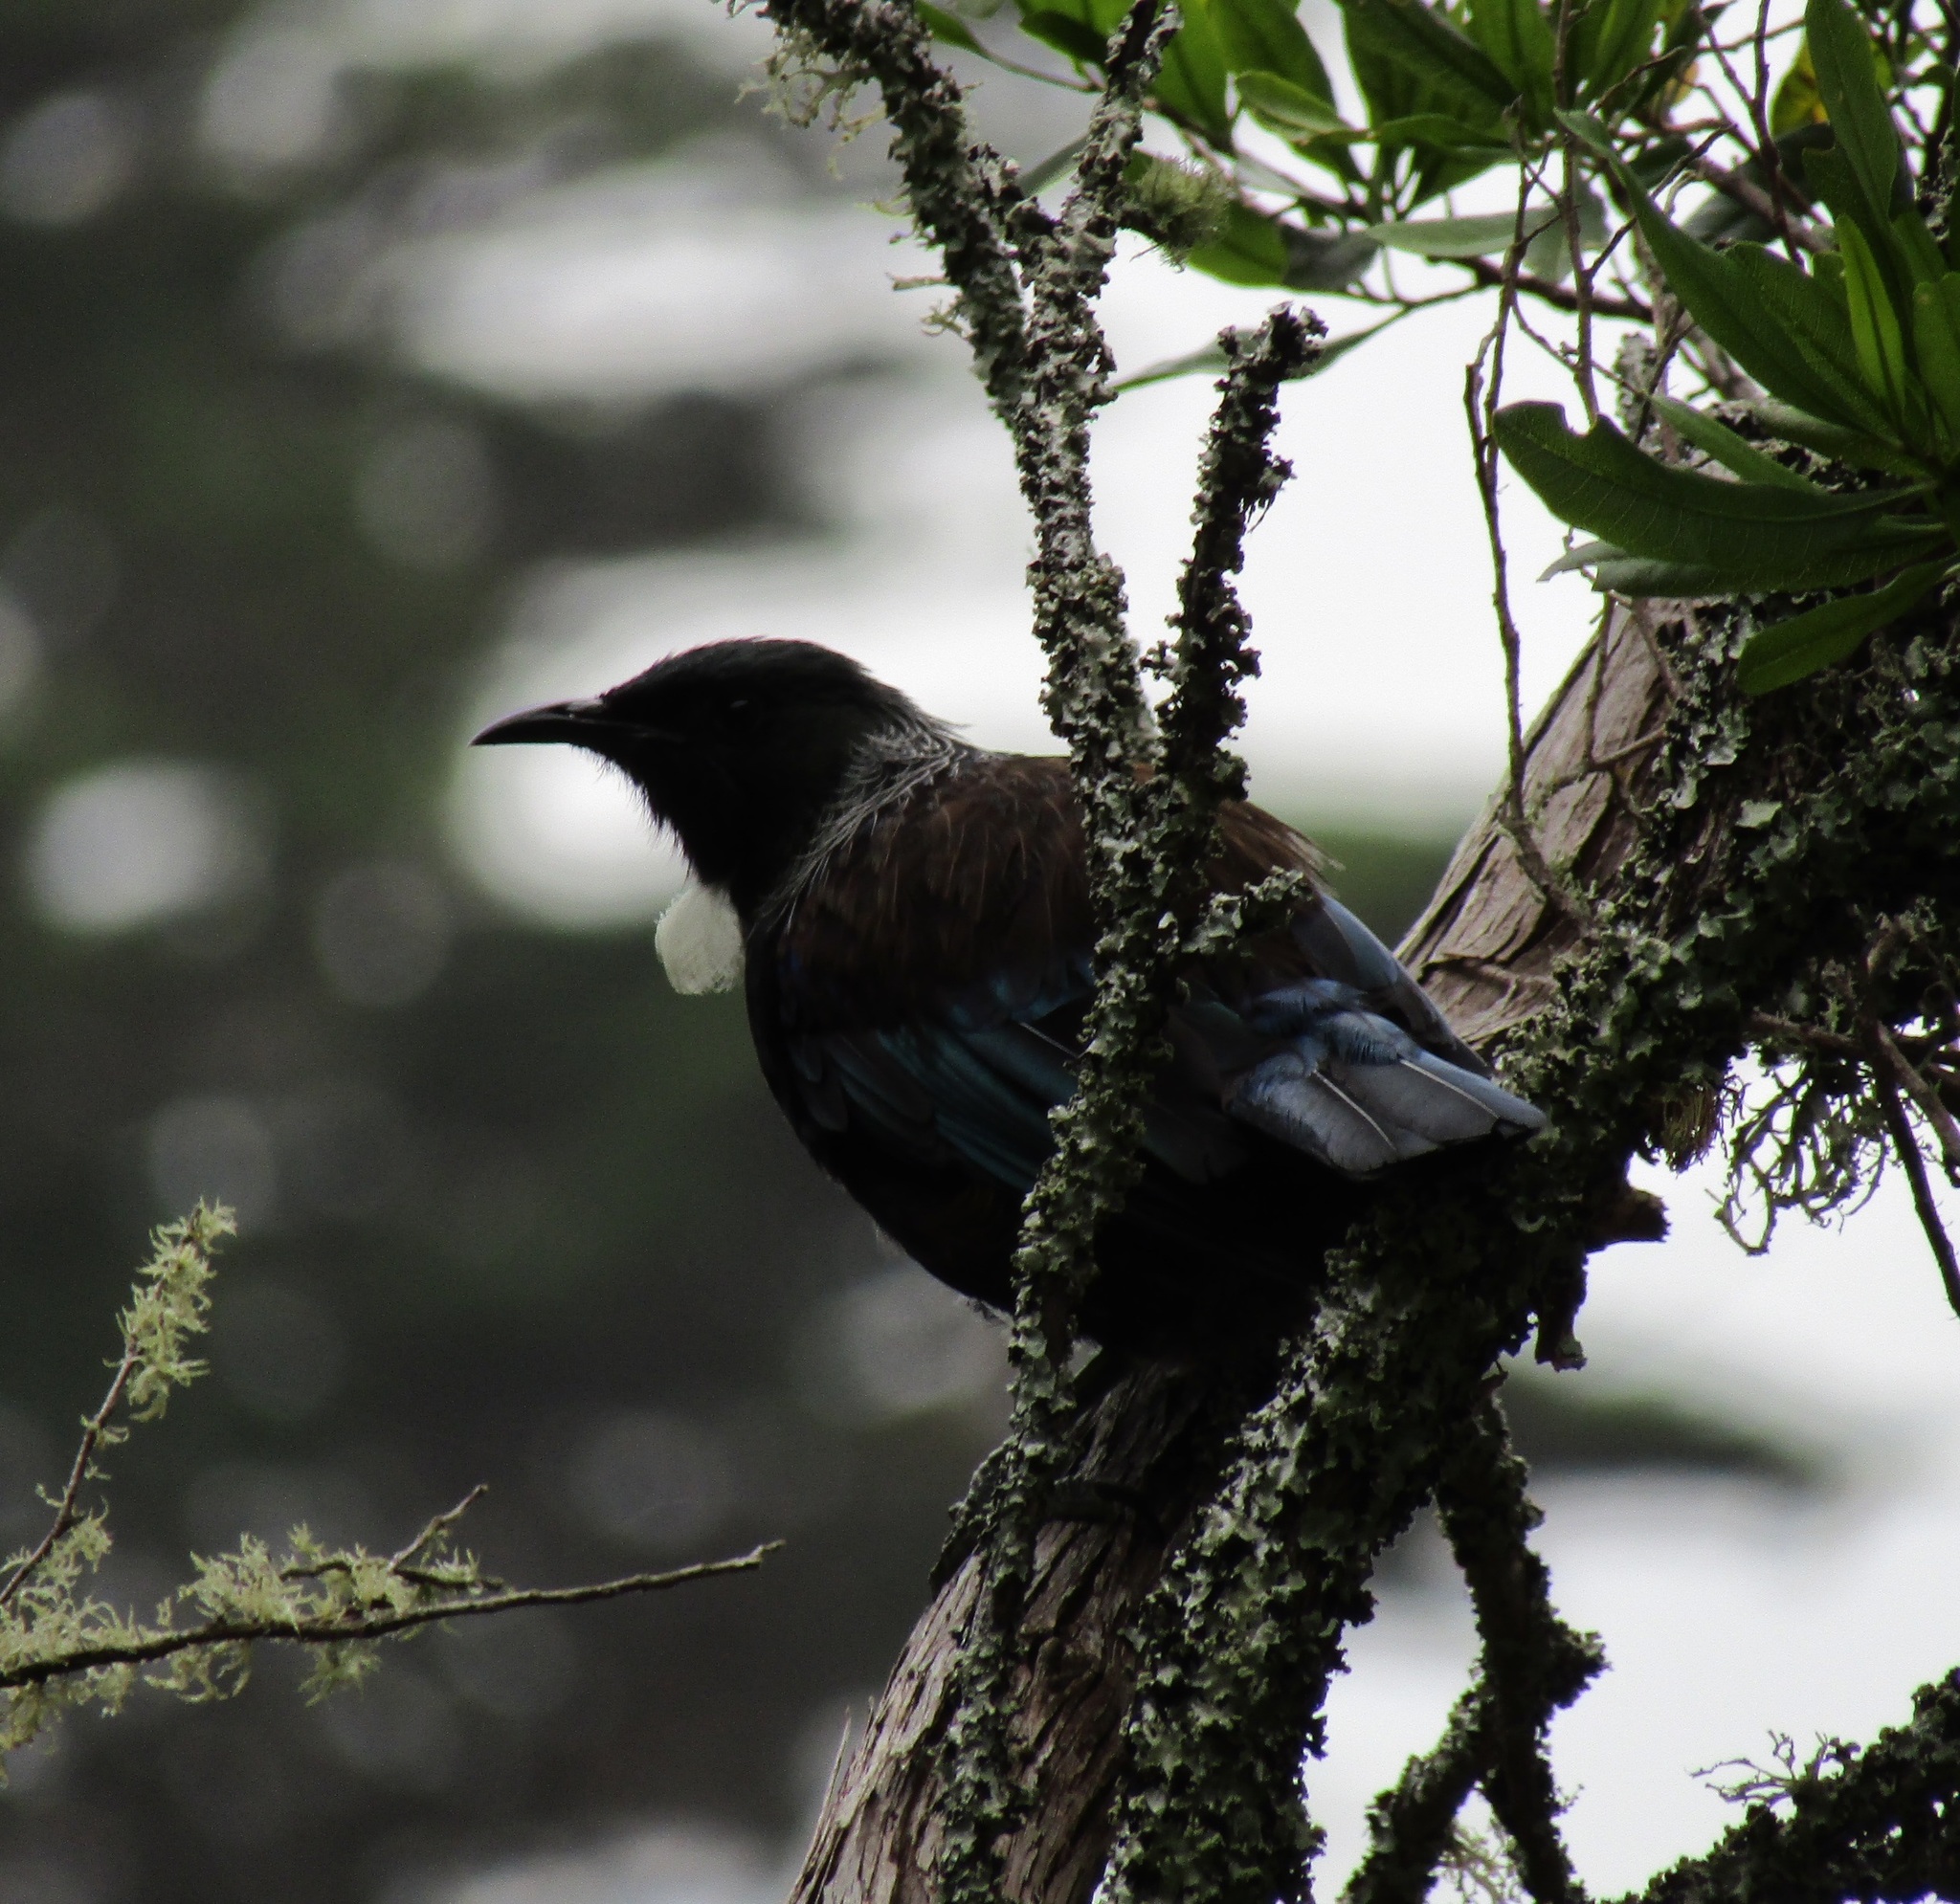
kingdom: Animalia
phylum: Chordata
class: Aves
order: Passeriformes
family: Meliphagidae
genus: Prosthemadera
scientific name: Prosthemadera novaeseelandiae
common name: Tui
